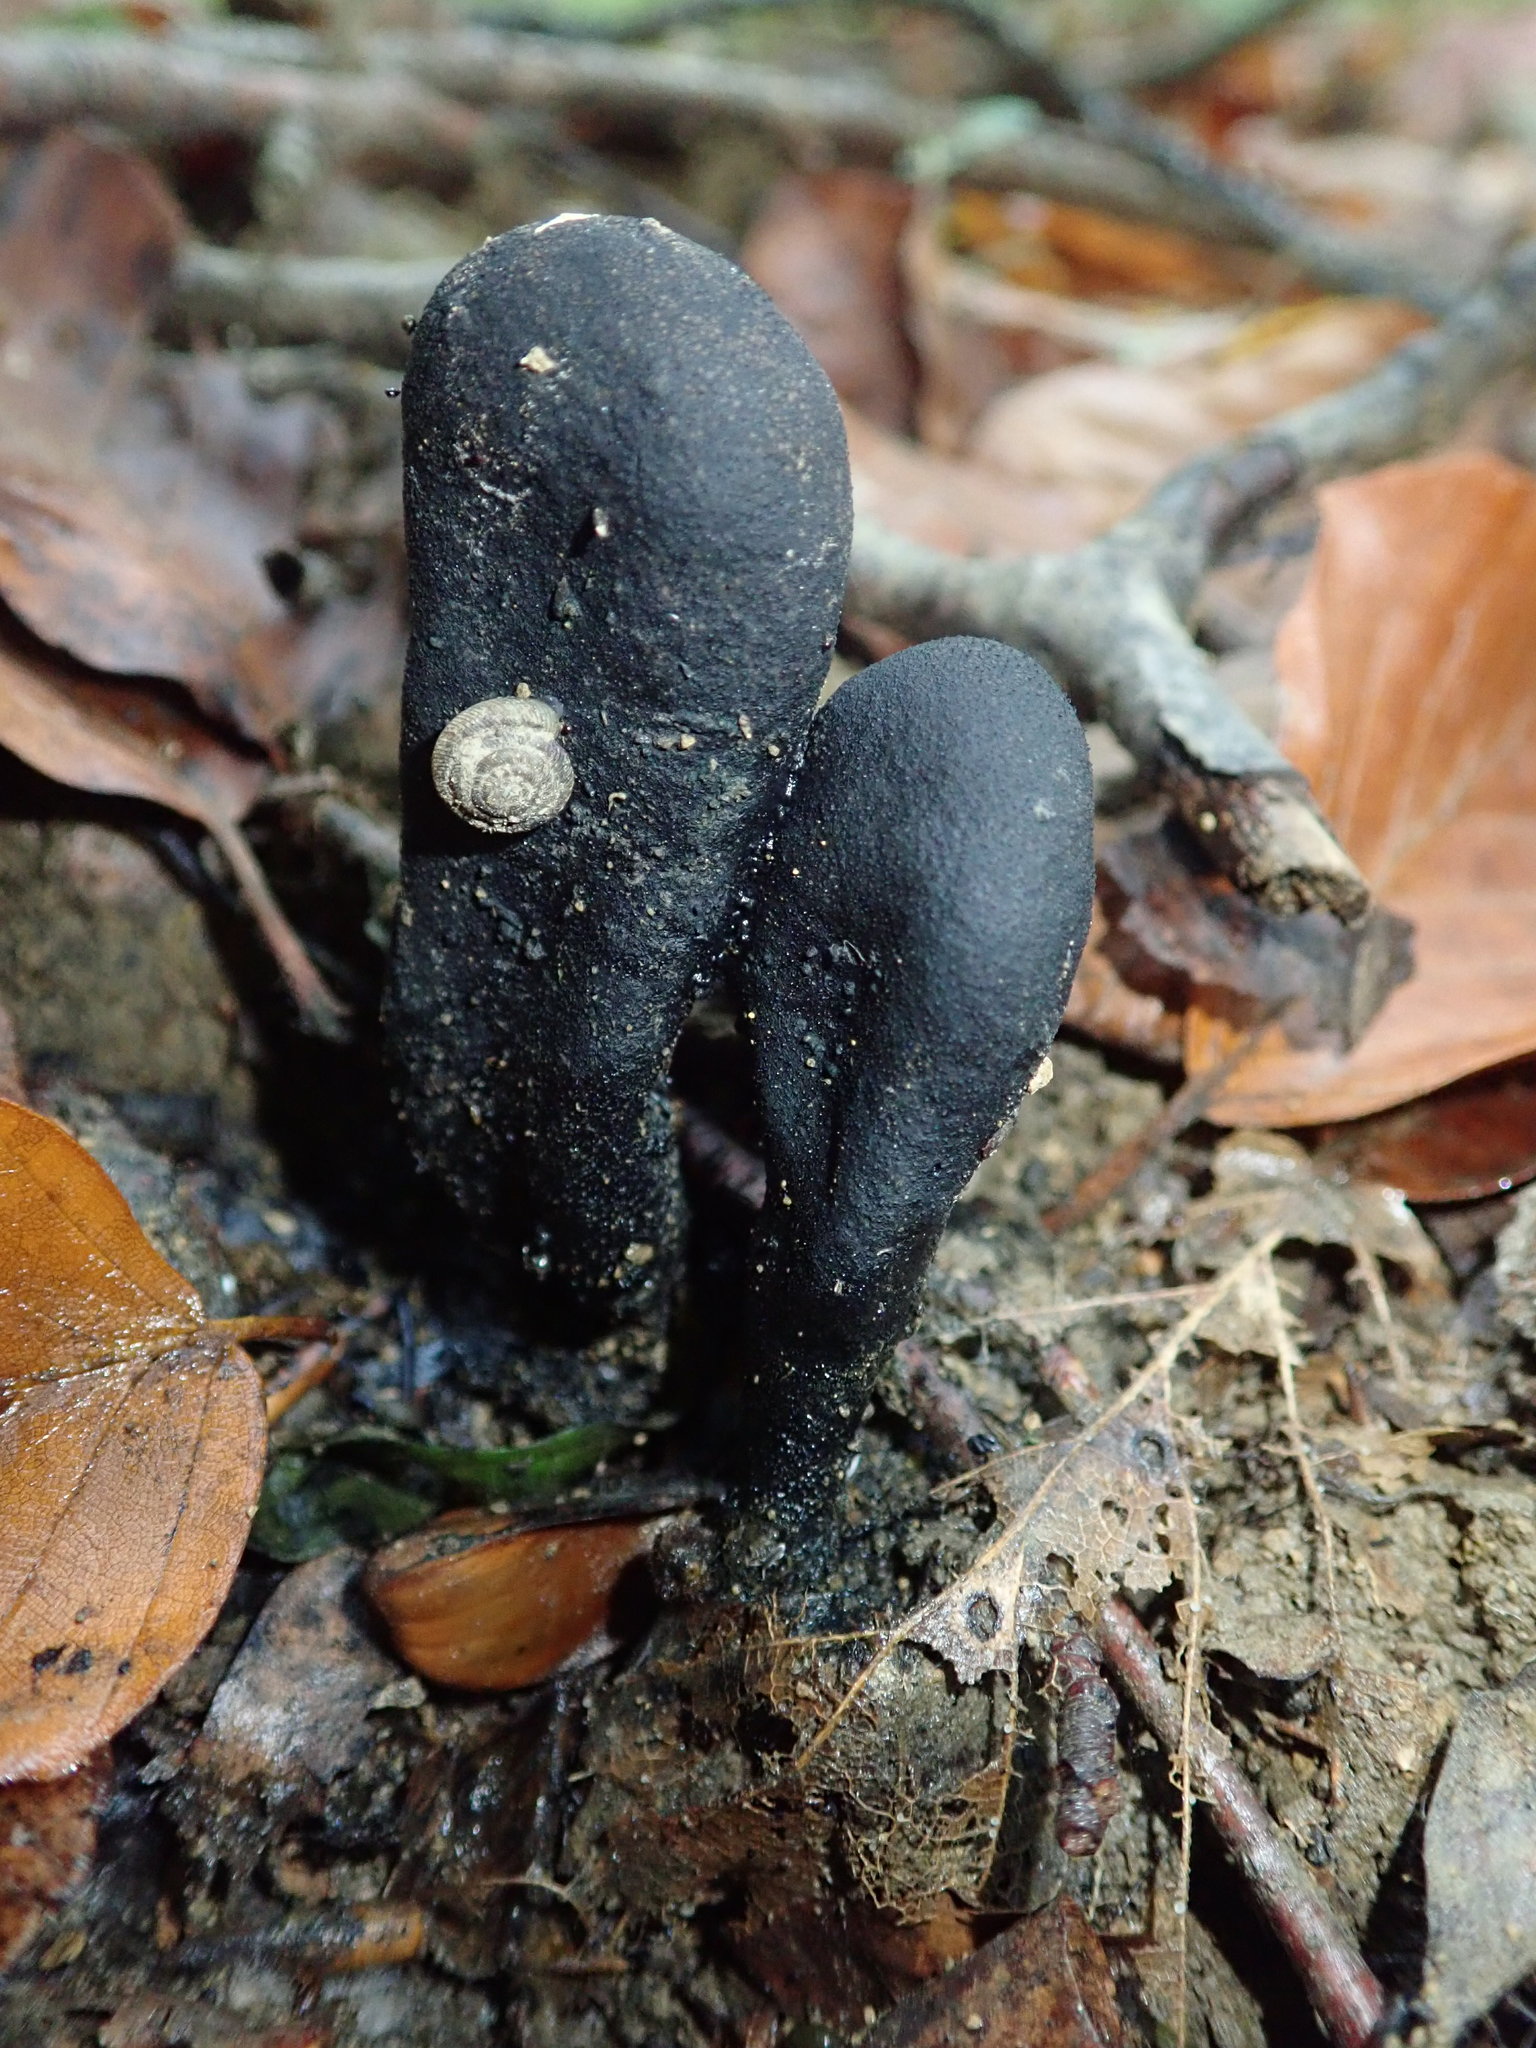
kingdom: Fungi
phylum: Ascomycota
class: Sordariomycetes
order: Xylariales
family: Xylariaceae
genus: Xylaria
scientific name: Xylaria polymorpha
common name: Dead man's fingers
